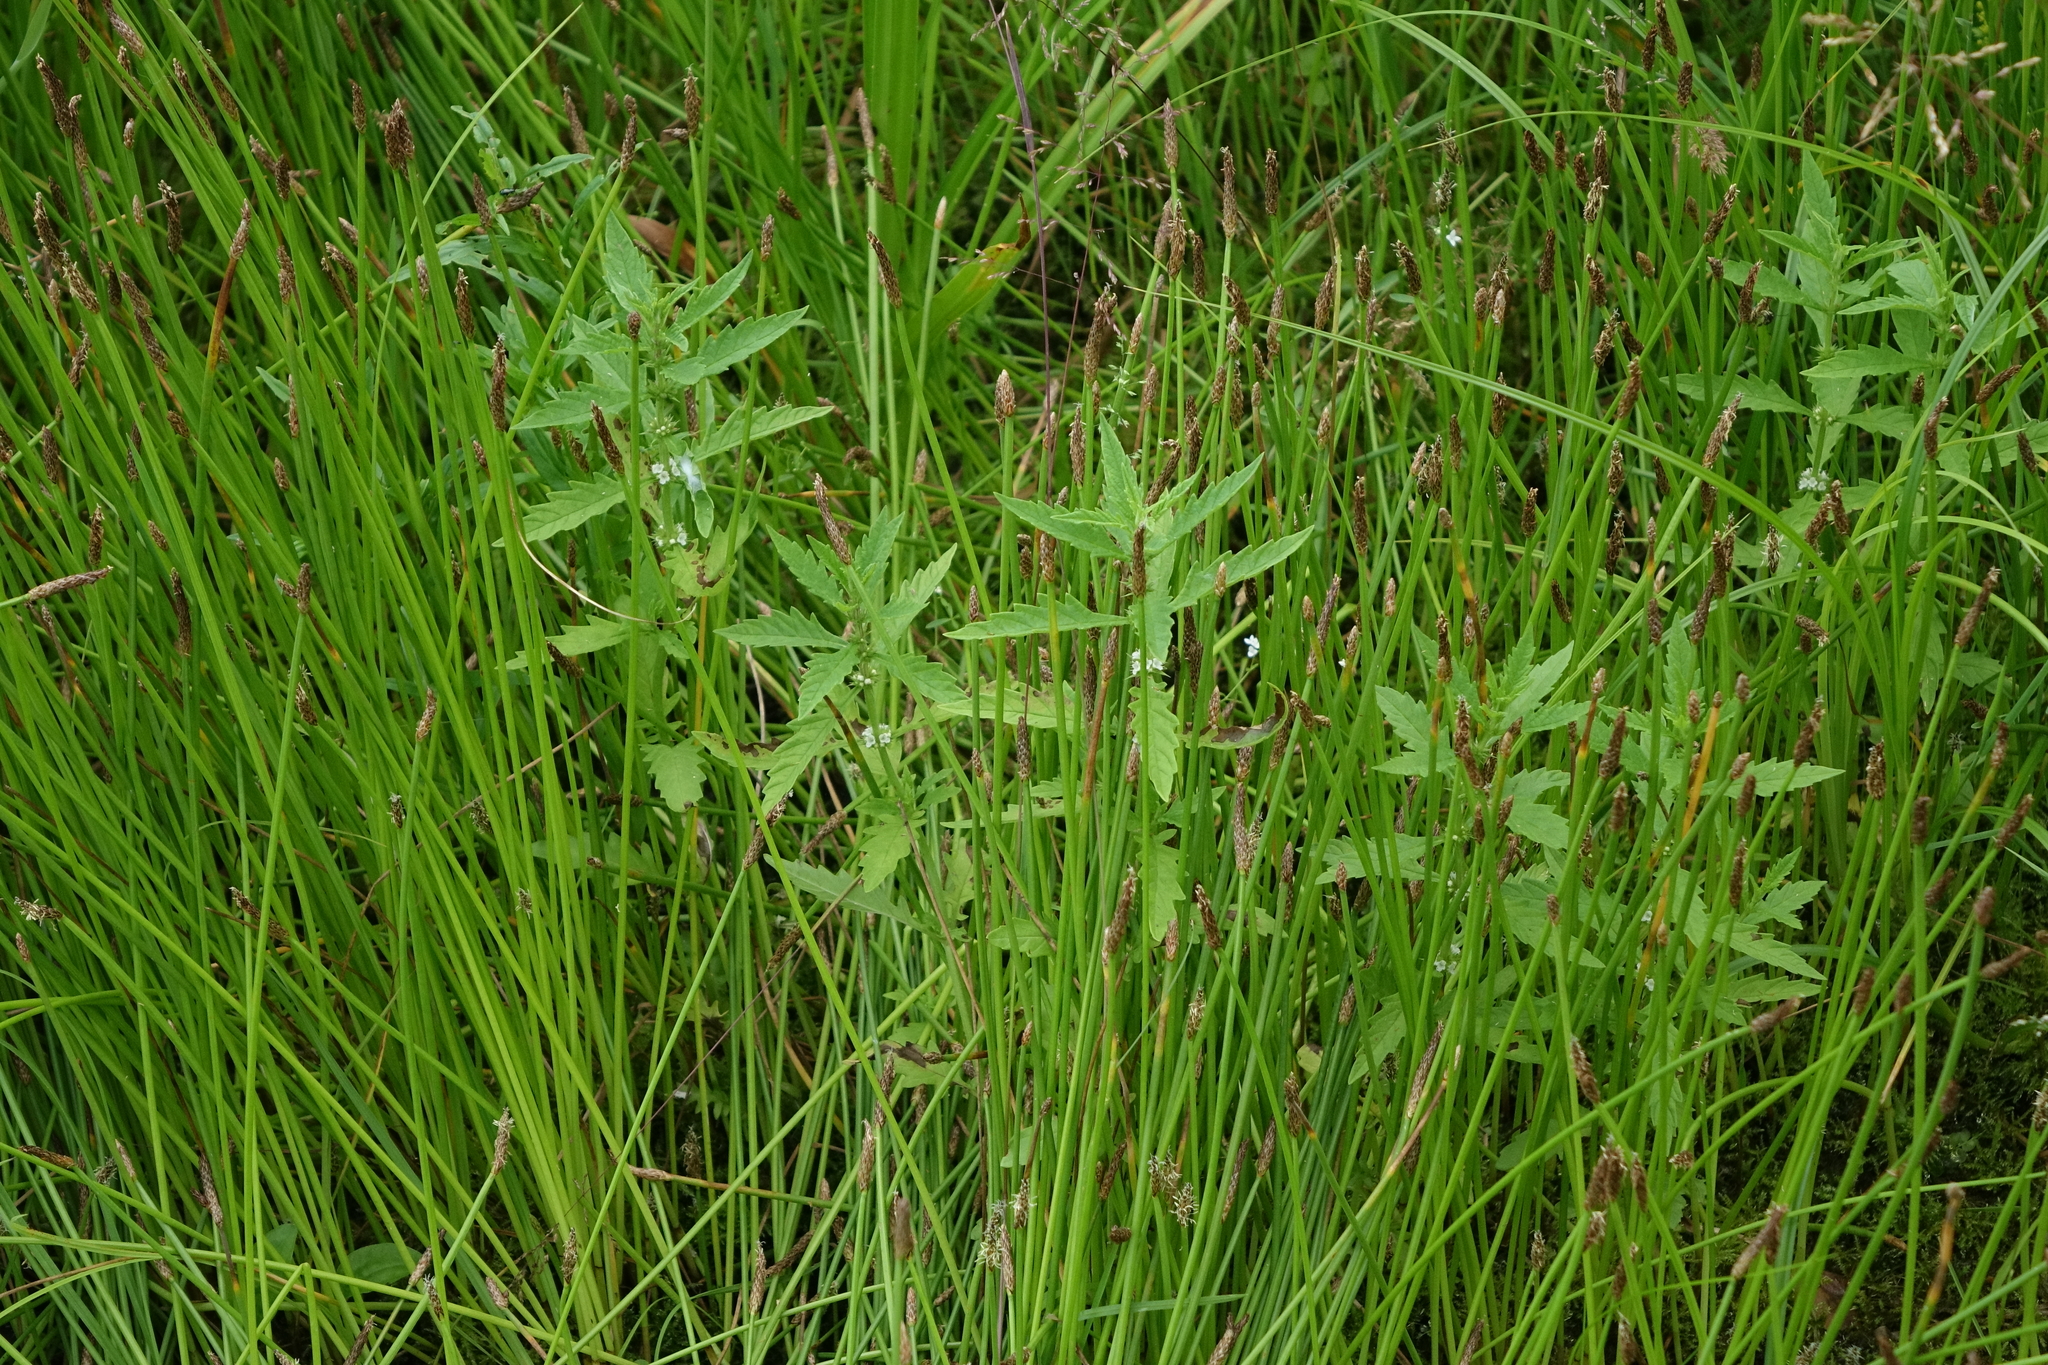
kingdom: Plantae
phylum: Tracheophyta
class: Magnoliopsida
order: Lamiales
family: Lamiaceae
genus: Lycopus
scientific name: Lycopus europaeus
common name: European bugleweed
